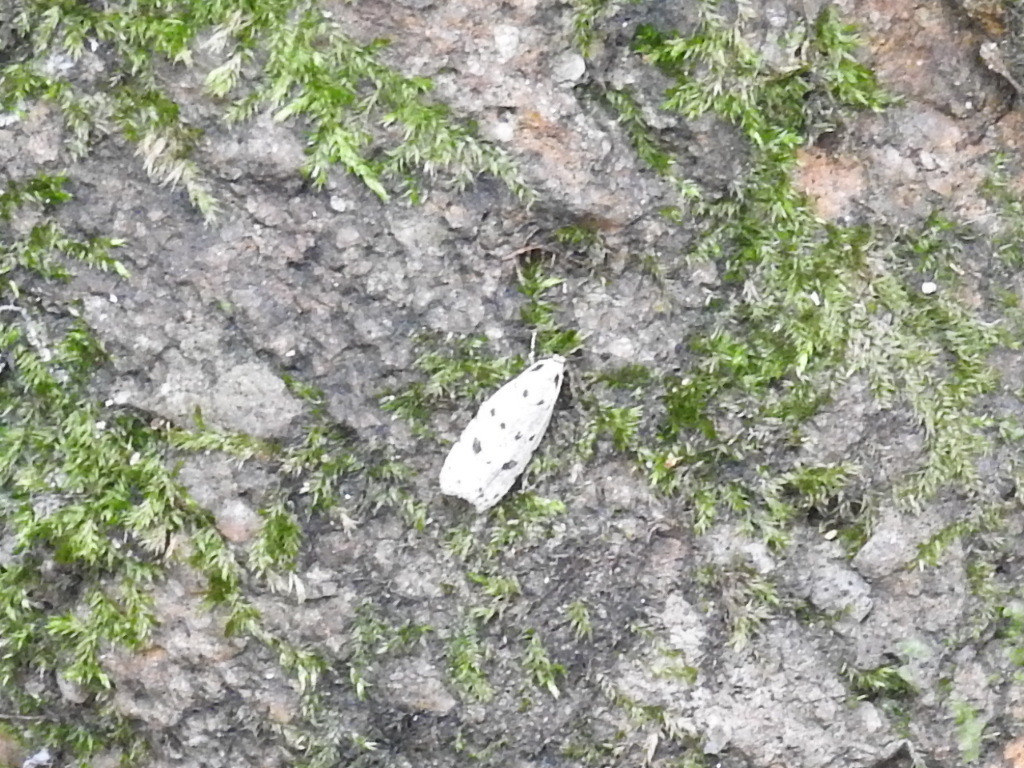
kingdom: Animalia
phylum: Arthropoda
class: Insecta
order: Lepidoptera
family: Autostichidae
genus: Autosticha
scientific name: Autosticha calceata
